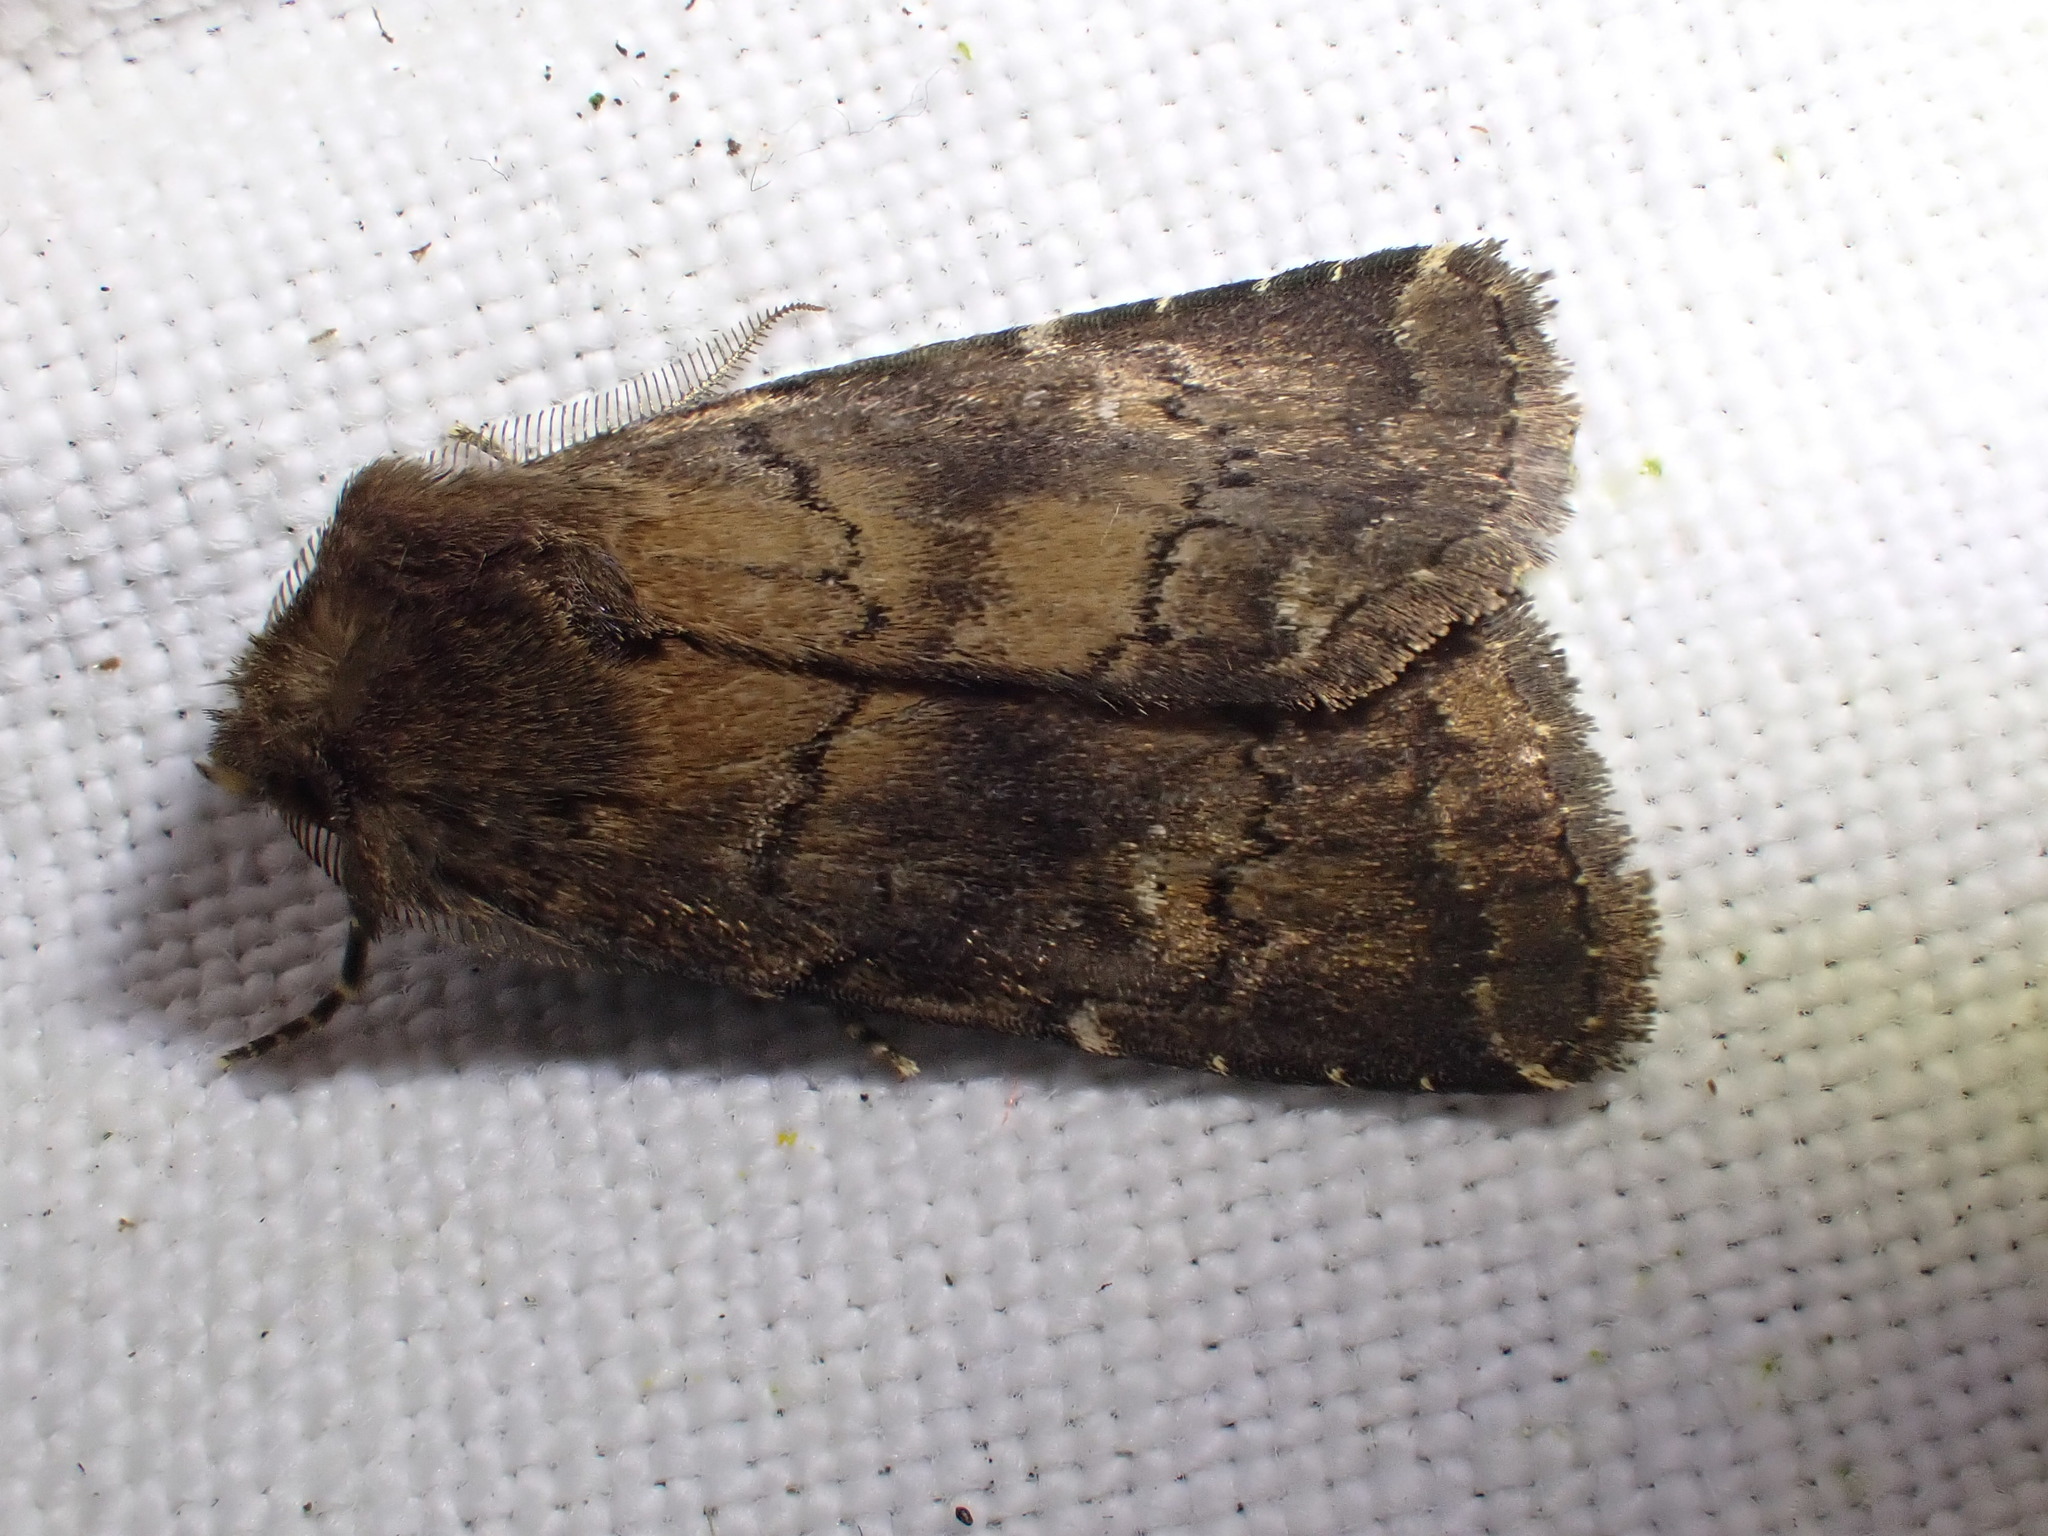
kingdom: Animalia
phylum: Arthropoda
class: Insecta
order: Lepidoptera
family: Noctuidae
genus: Charanyca
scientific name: Charanyca ferruginea
